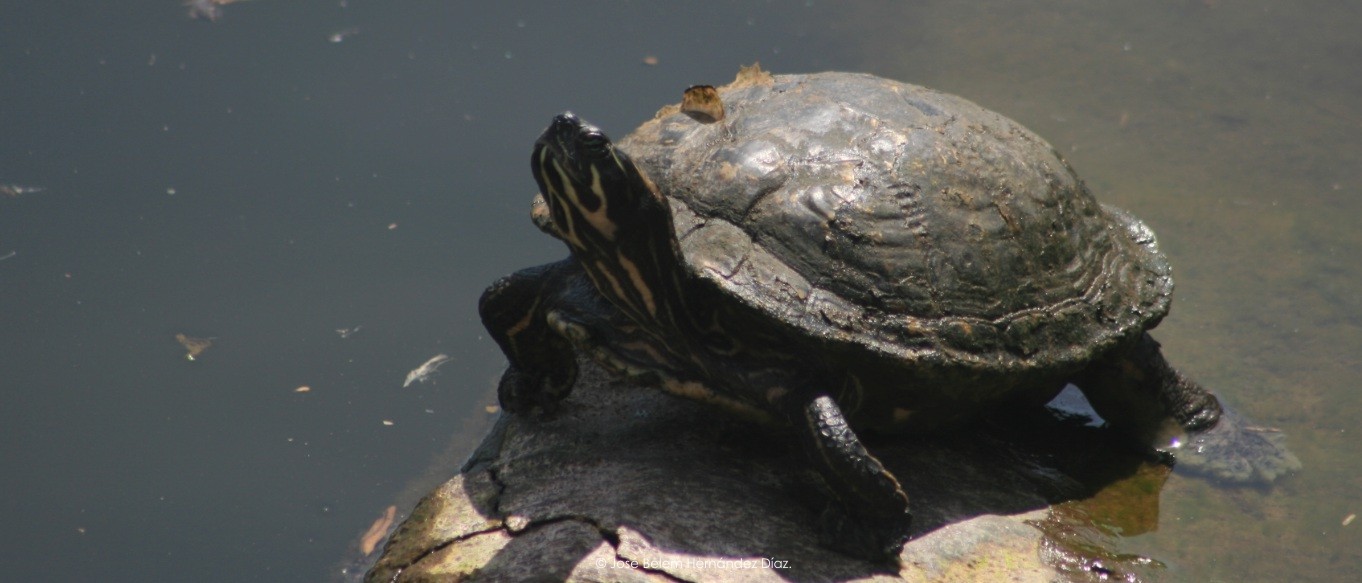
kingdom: Animalia
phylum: Chordata
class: Testudines
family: Emydidae
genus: Trachemys
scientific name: Trachemys scripta
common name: Slider
